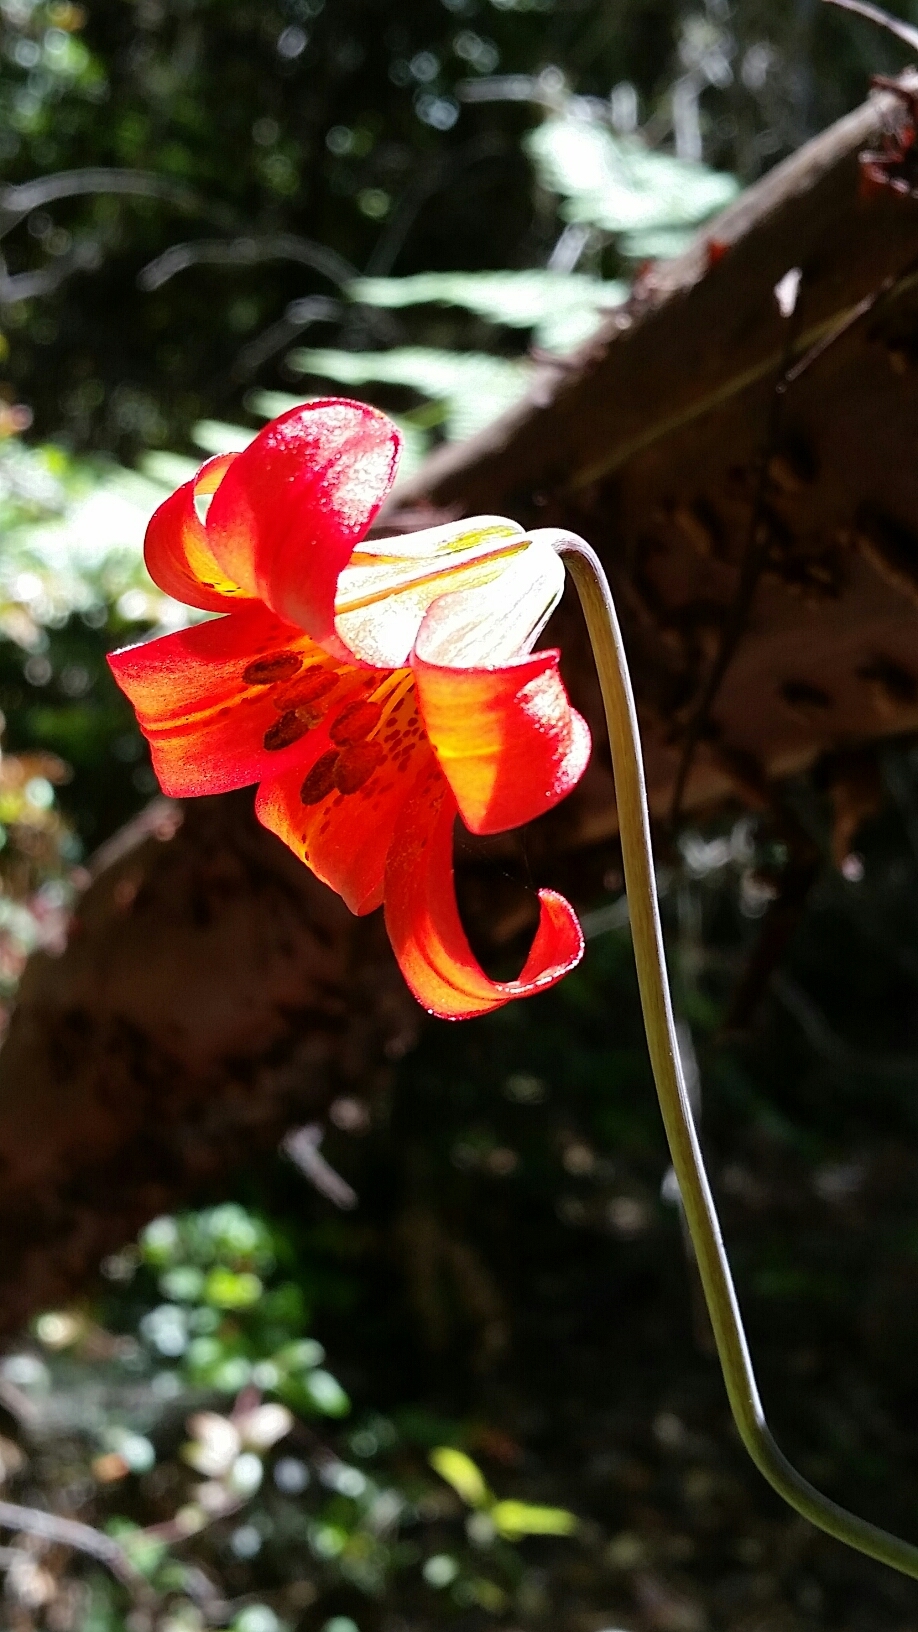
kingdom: Plantae
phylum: Tracheophyta
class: Liliopsida
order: Liliales
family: Liliaceae
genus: Lilium
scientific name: Lilium maritimum
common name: Coastal lily
